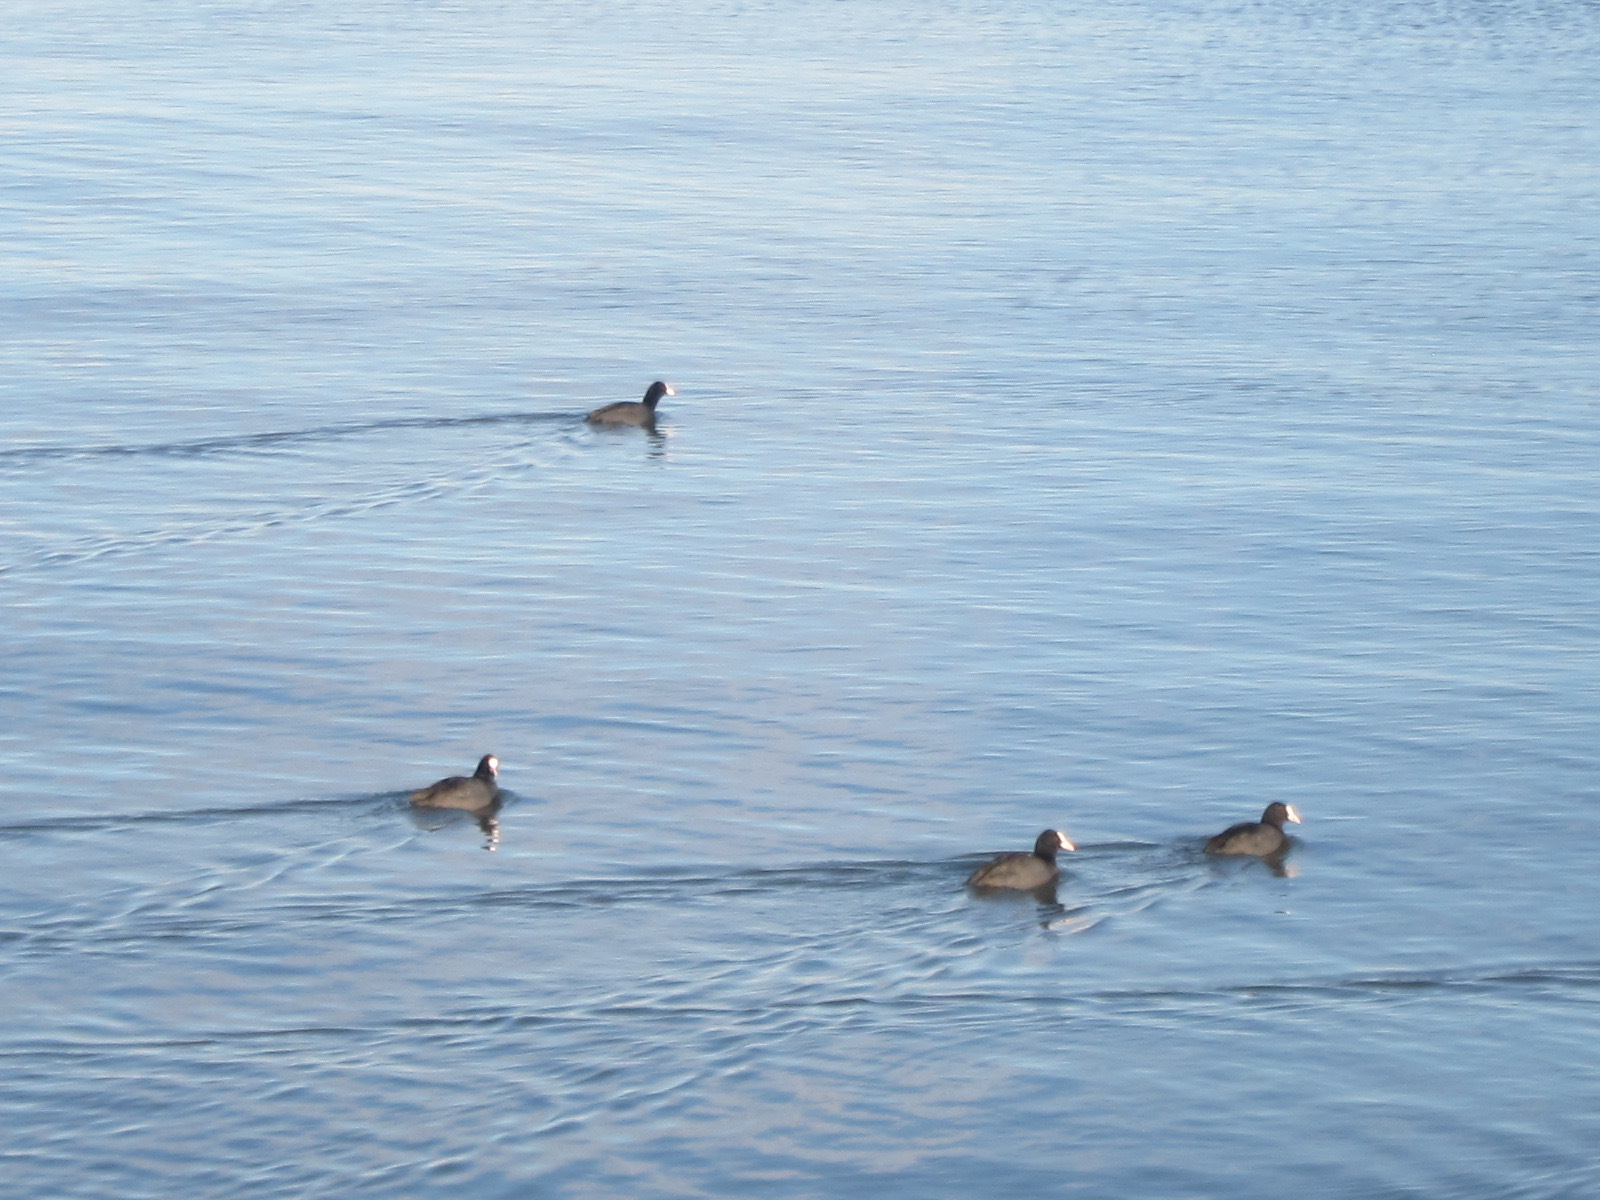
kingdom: Animalia
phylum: Chordata
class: Aves
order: Gruiformes
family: Rallidae
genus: Fulica
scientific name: Fulica atra
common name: Eurasian coot
